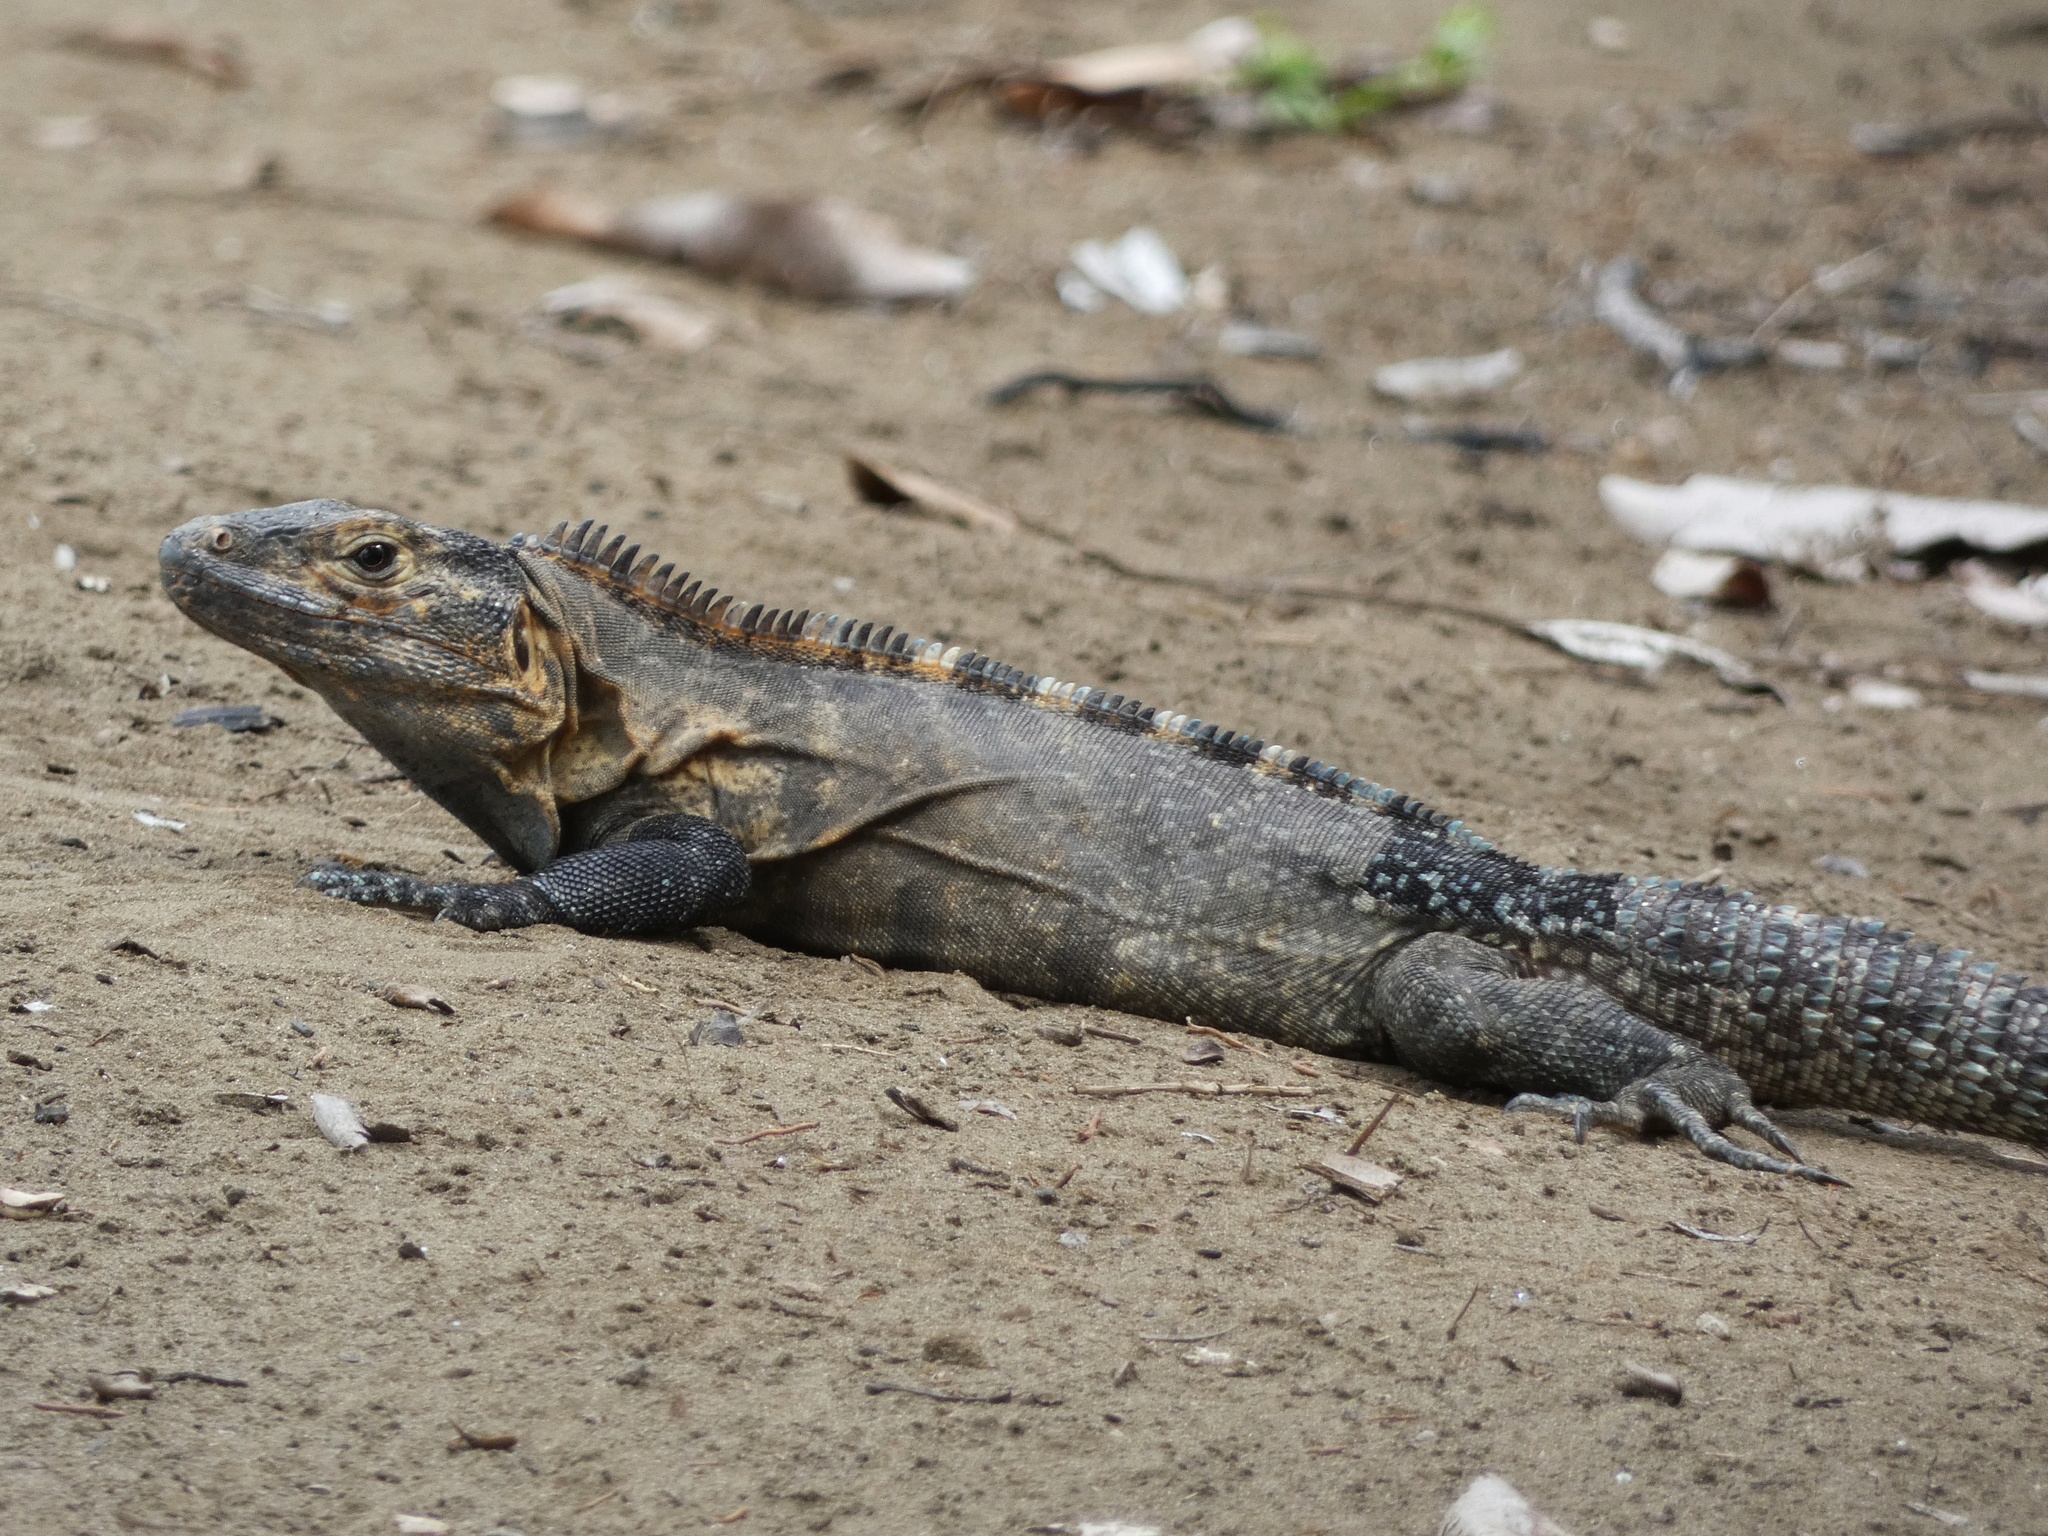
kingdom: Animalia
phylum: Chordata
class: Squamata
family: Iguanidae
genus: Ctenosaura
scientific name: Ctenosaura similis
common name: Black spiny-tailed iguana
